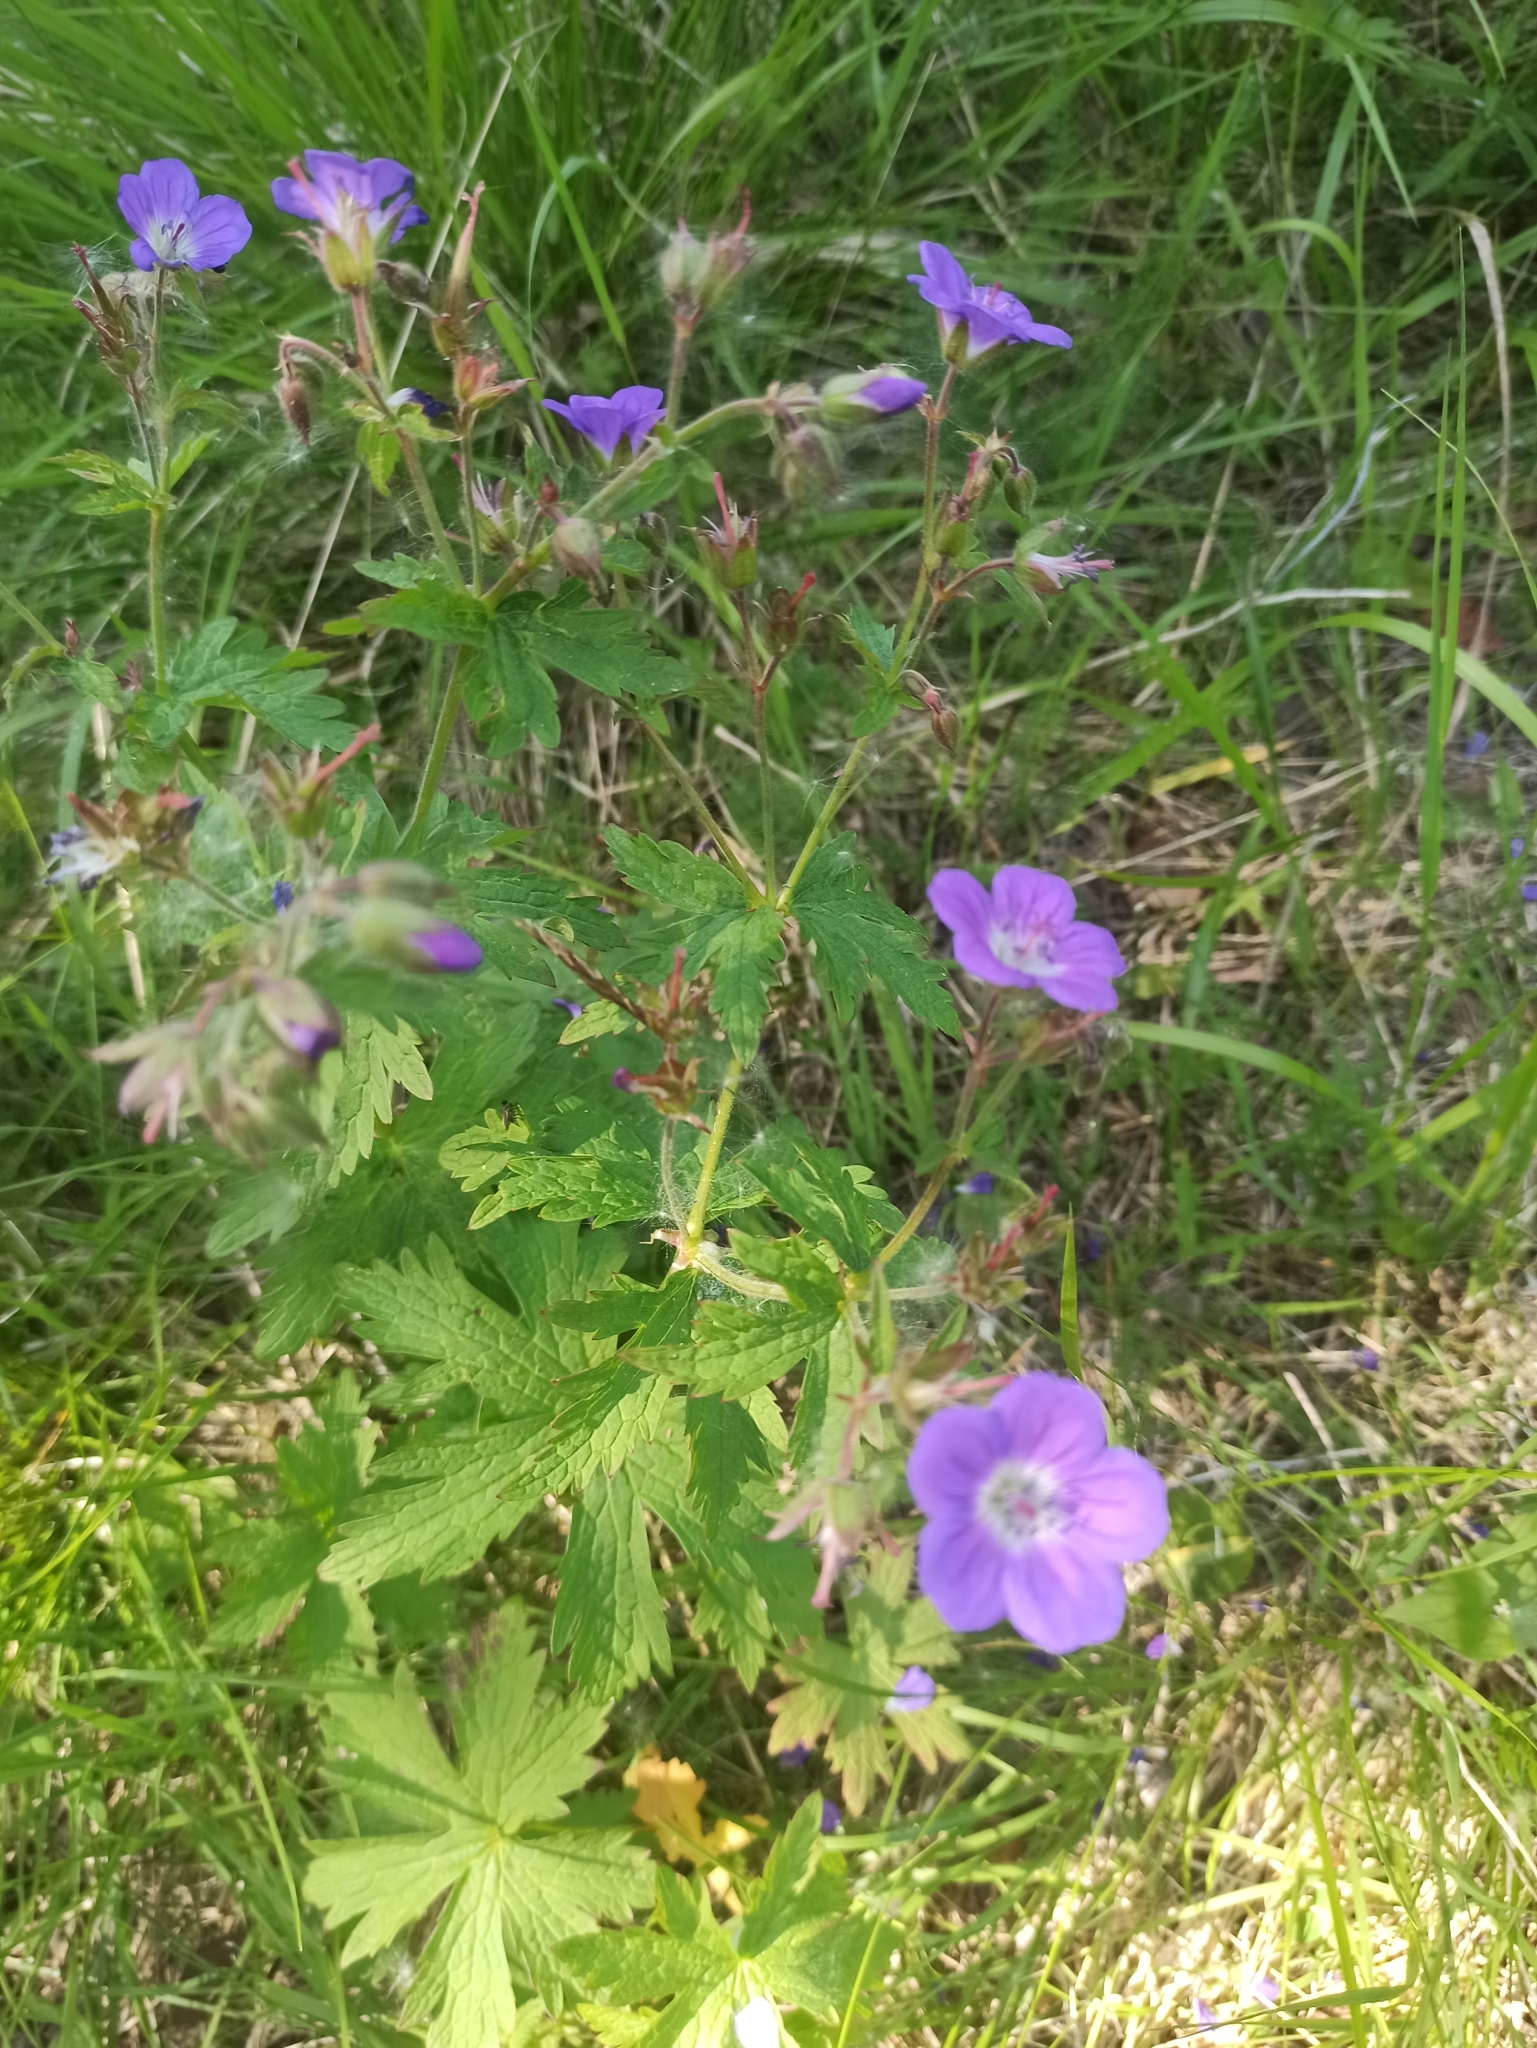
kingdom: Plantae
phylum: Tracheophyta
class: Magnoliopsida
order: Geraniales
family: Geraniaceae
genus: Geranium
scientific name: Geranium sylvaticum
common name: Wood crane's-bill
